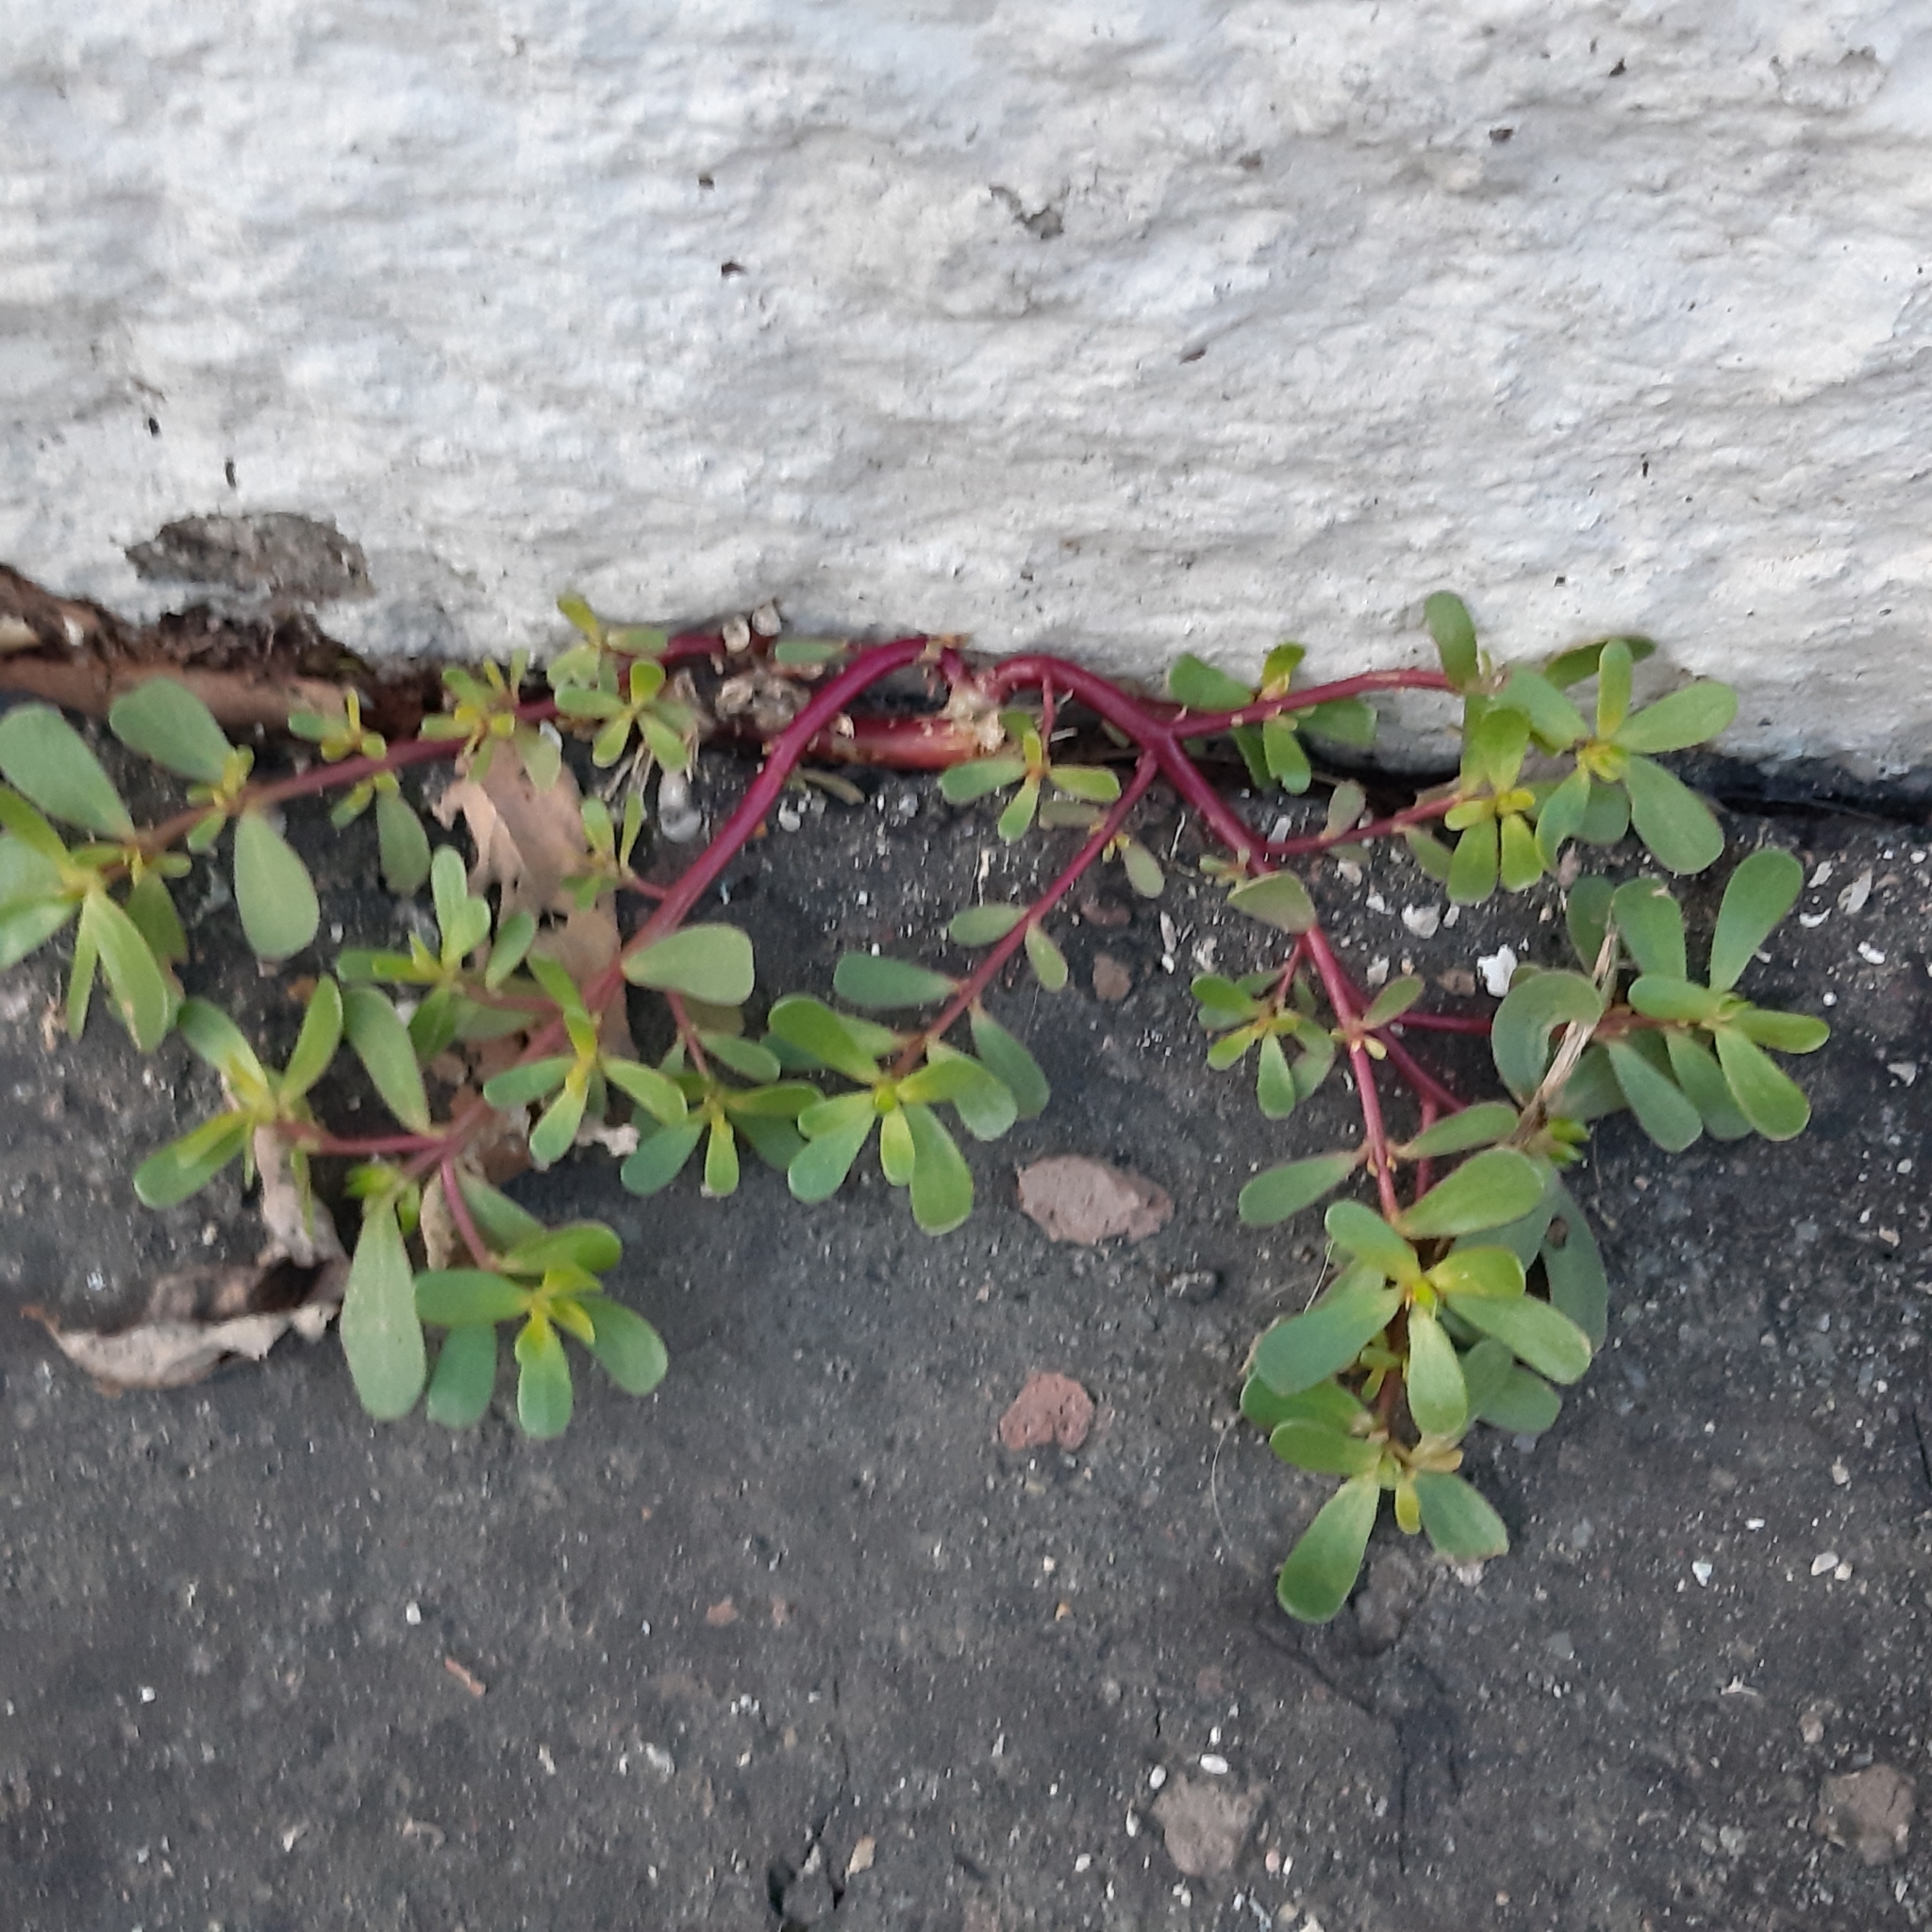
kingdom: Plantae
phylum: Tracheophyta
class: Magnoliopsida
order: Caryophyllales
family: Portulacaceae
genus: Portulaca
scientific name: Portulaca oleracea
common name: Common purslane
